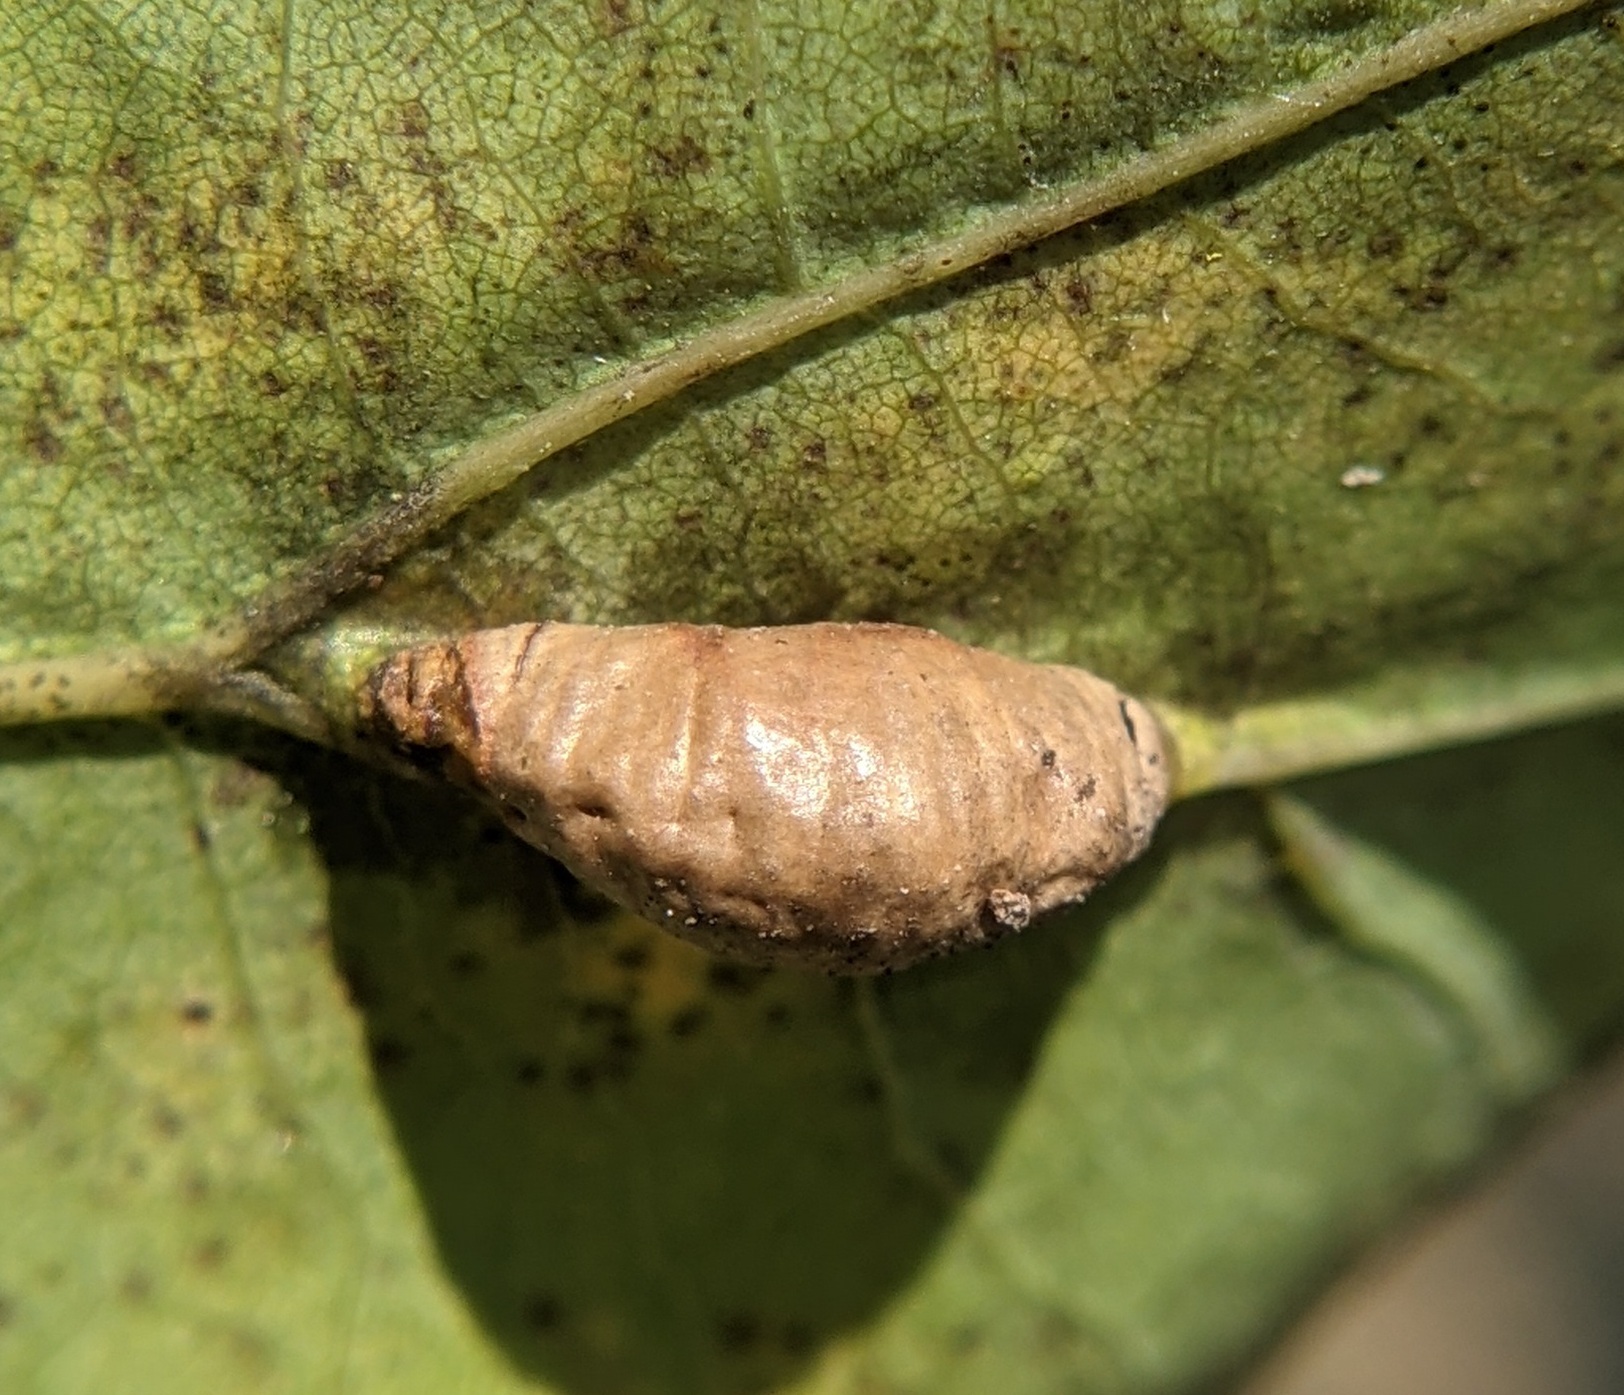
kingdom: Animalia
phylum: Arthropoda
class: Insecta
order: Diptera
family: Cecidomyiidae
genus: Macrodiplosis
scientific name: Macrodiplosis majalis
